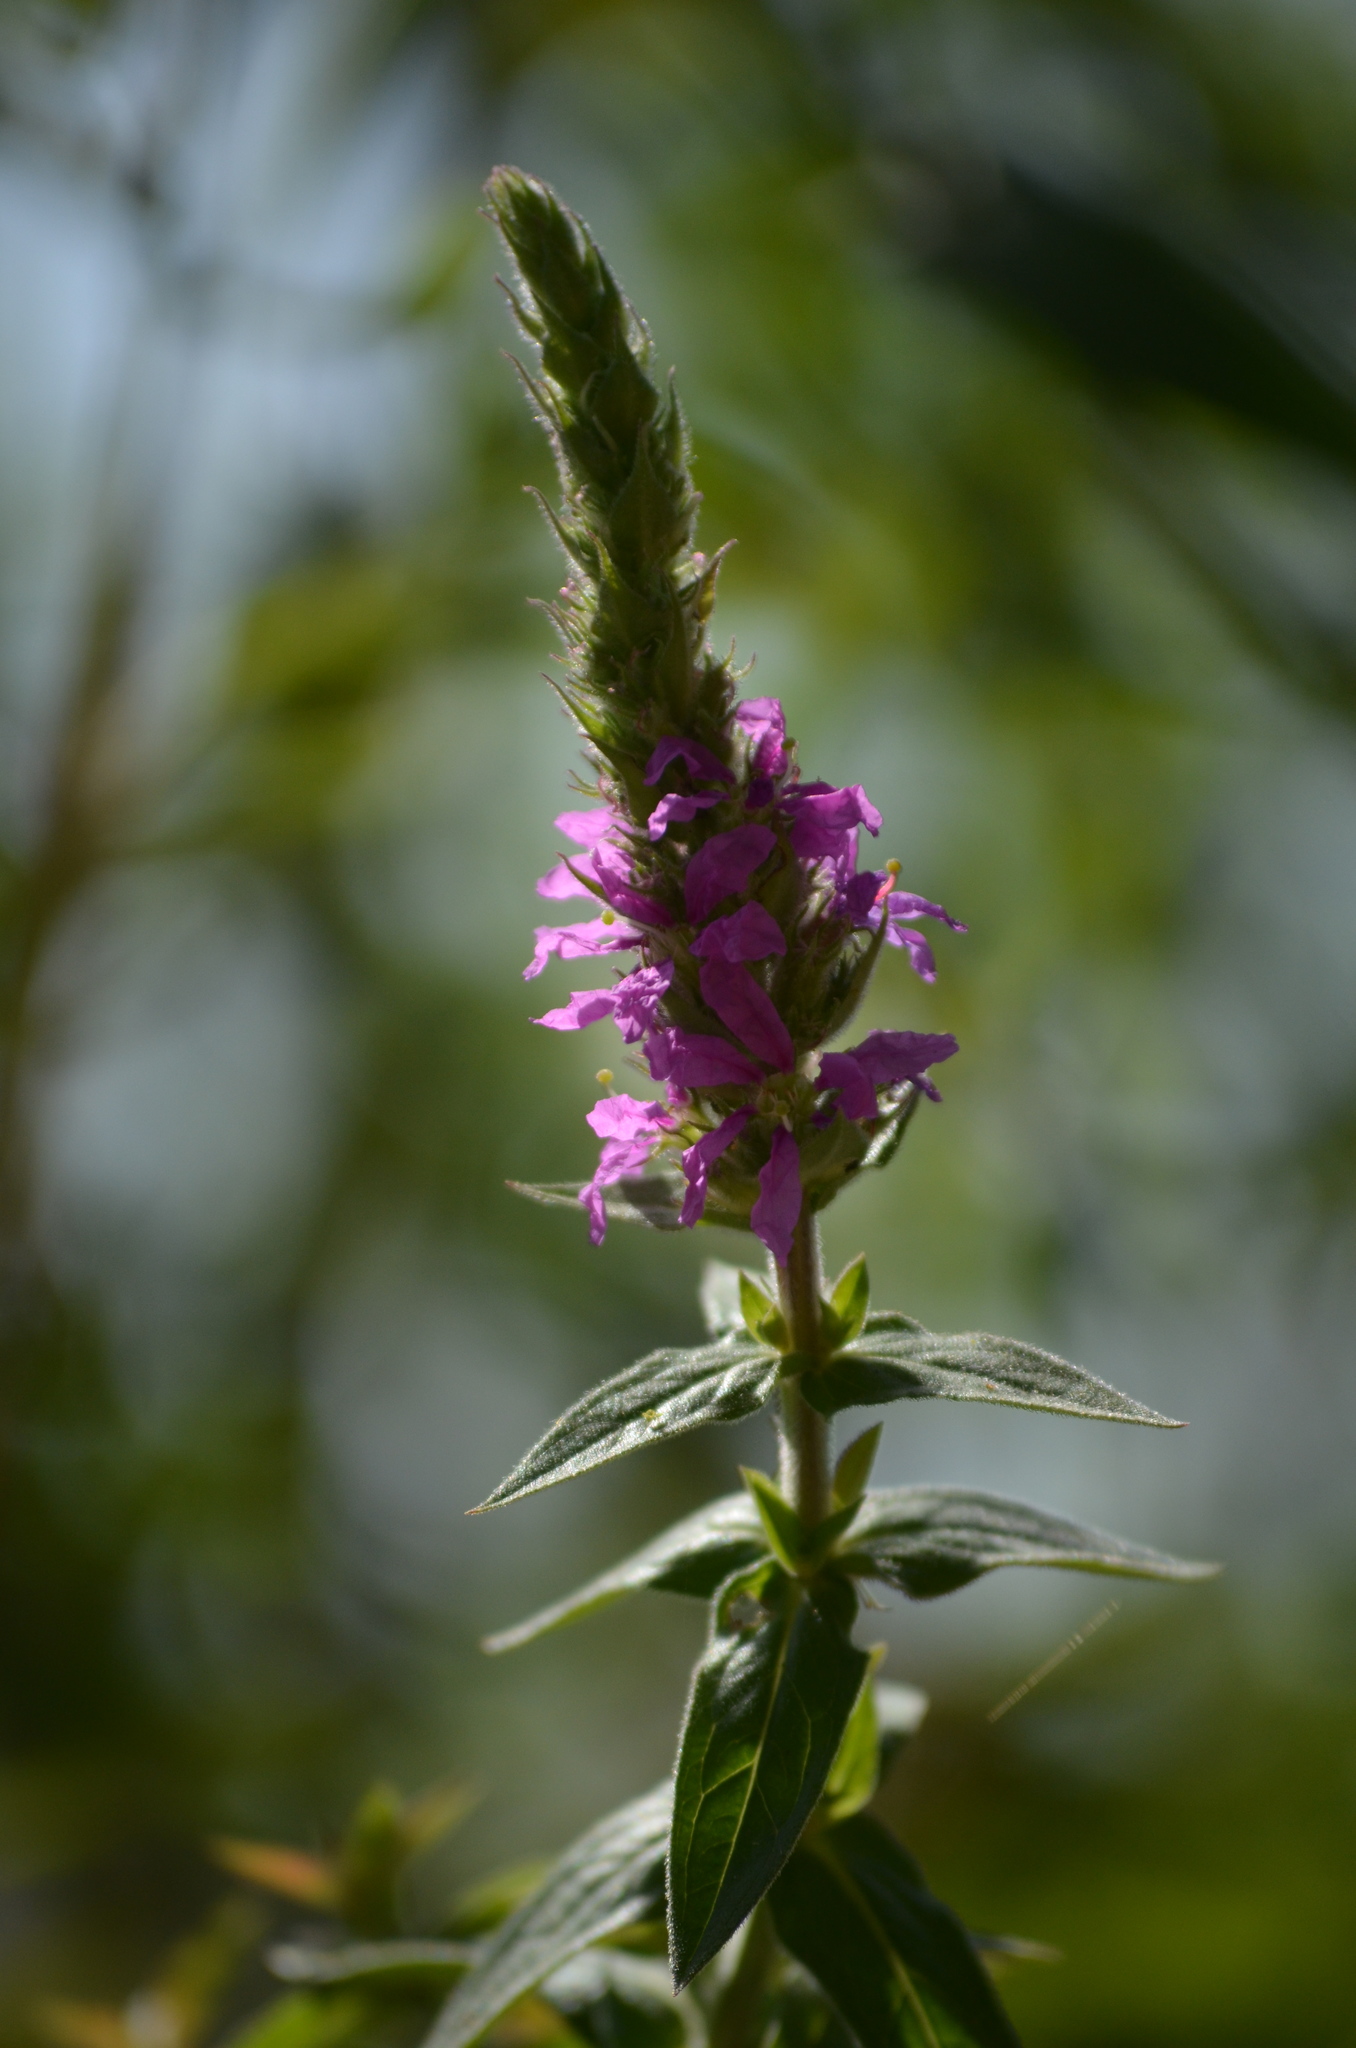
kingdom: Plantae
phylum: Tracheophyta
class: Magnoliopsida
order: Myrtales
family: Lythraceae
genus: Lythrum
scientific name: Lythrum salicaria
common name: Purple loosestrife
